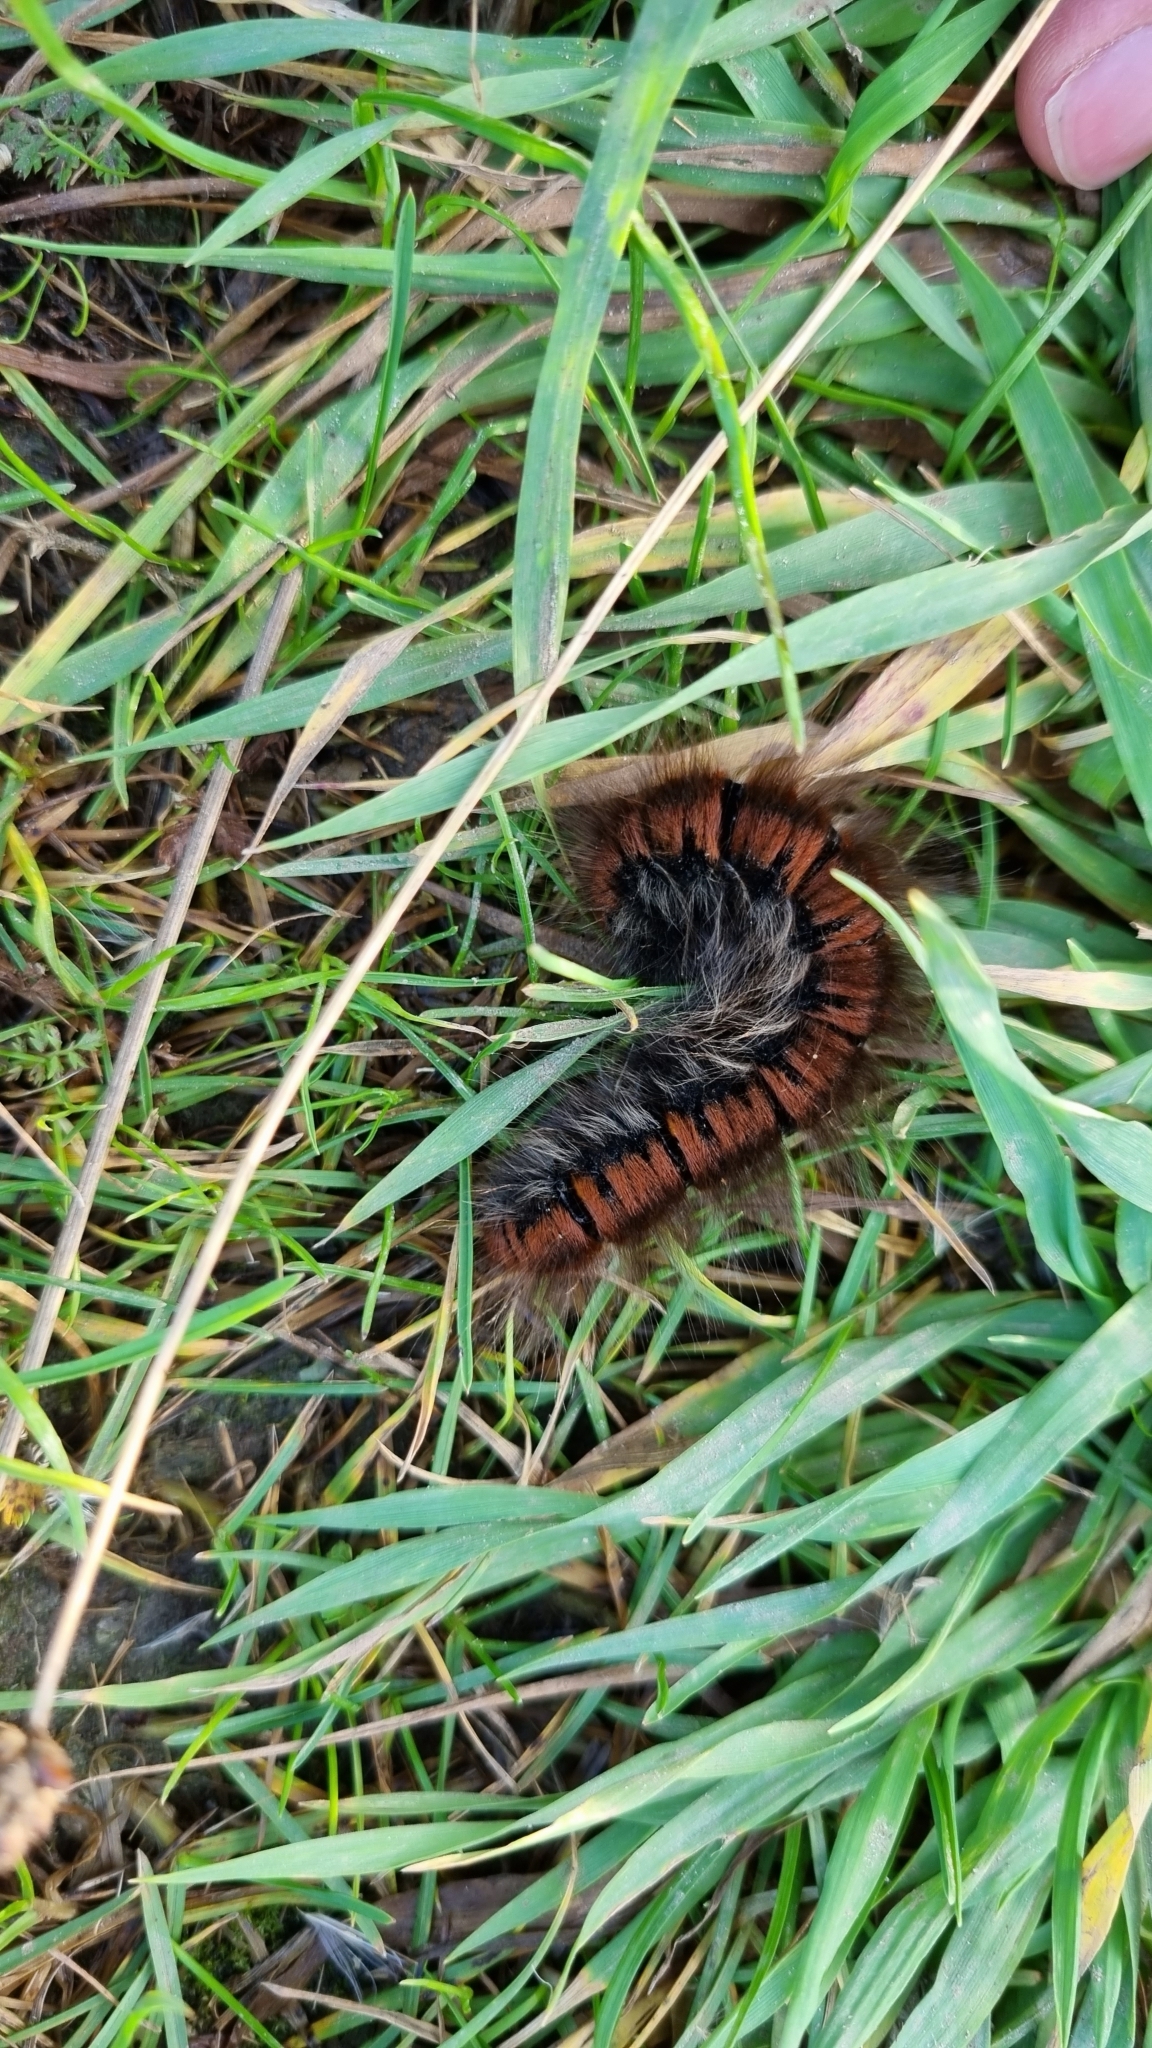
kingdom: Animalia
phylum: Arthropoda
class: Insecta
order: Lepidoptera
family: Lasiocampidae
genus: Macrothylacia
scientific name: Macrothylacia rubi
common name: Fox moth
